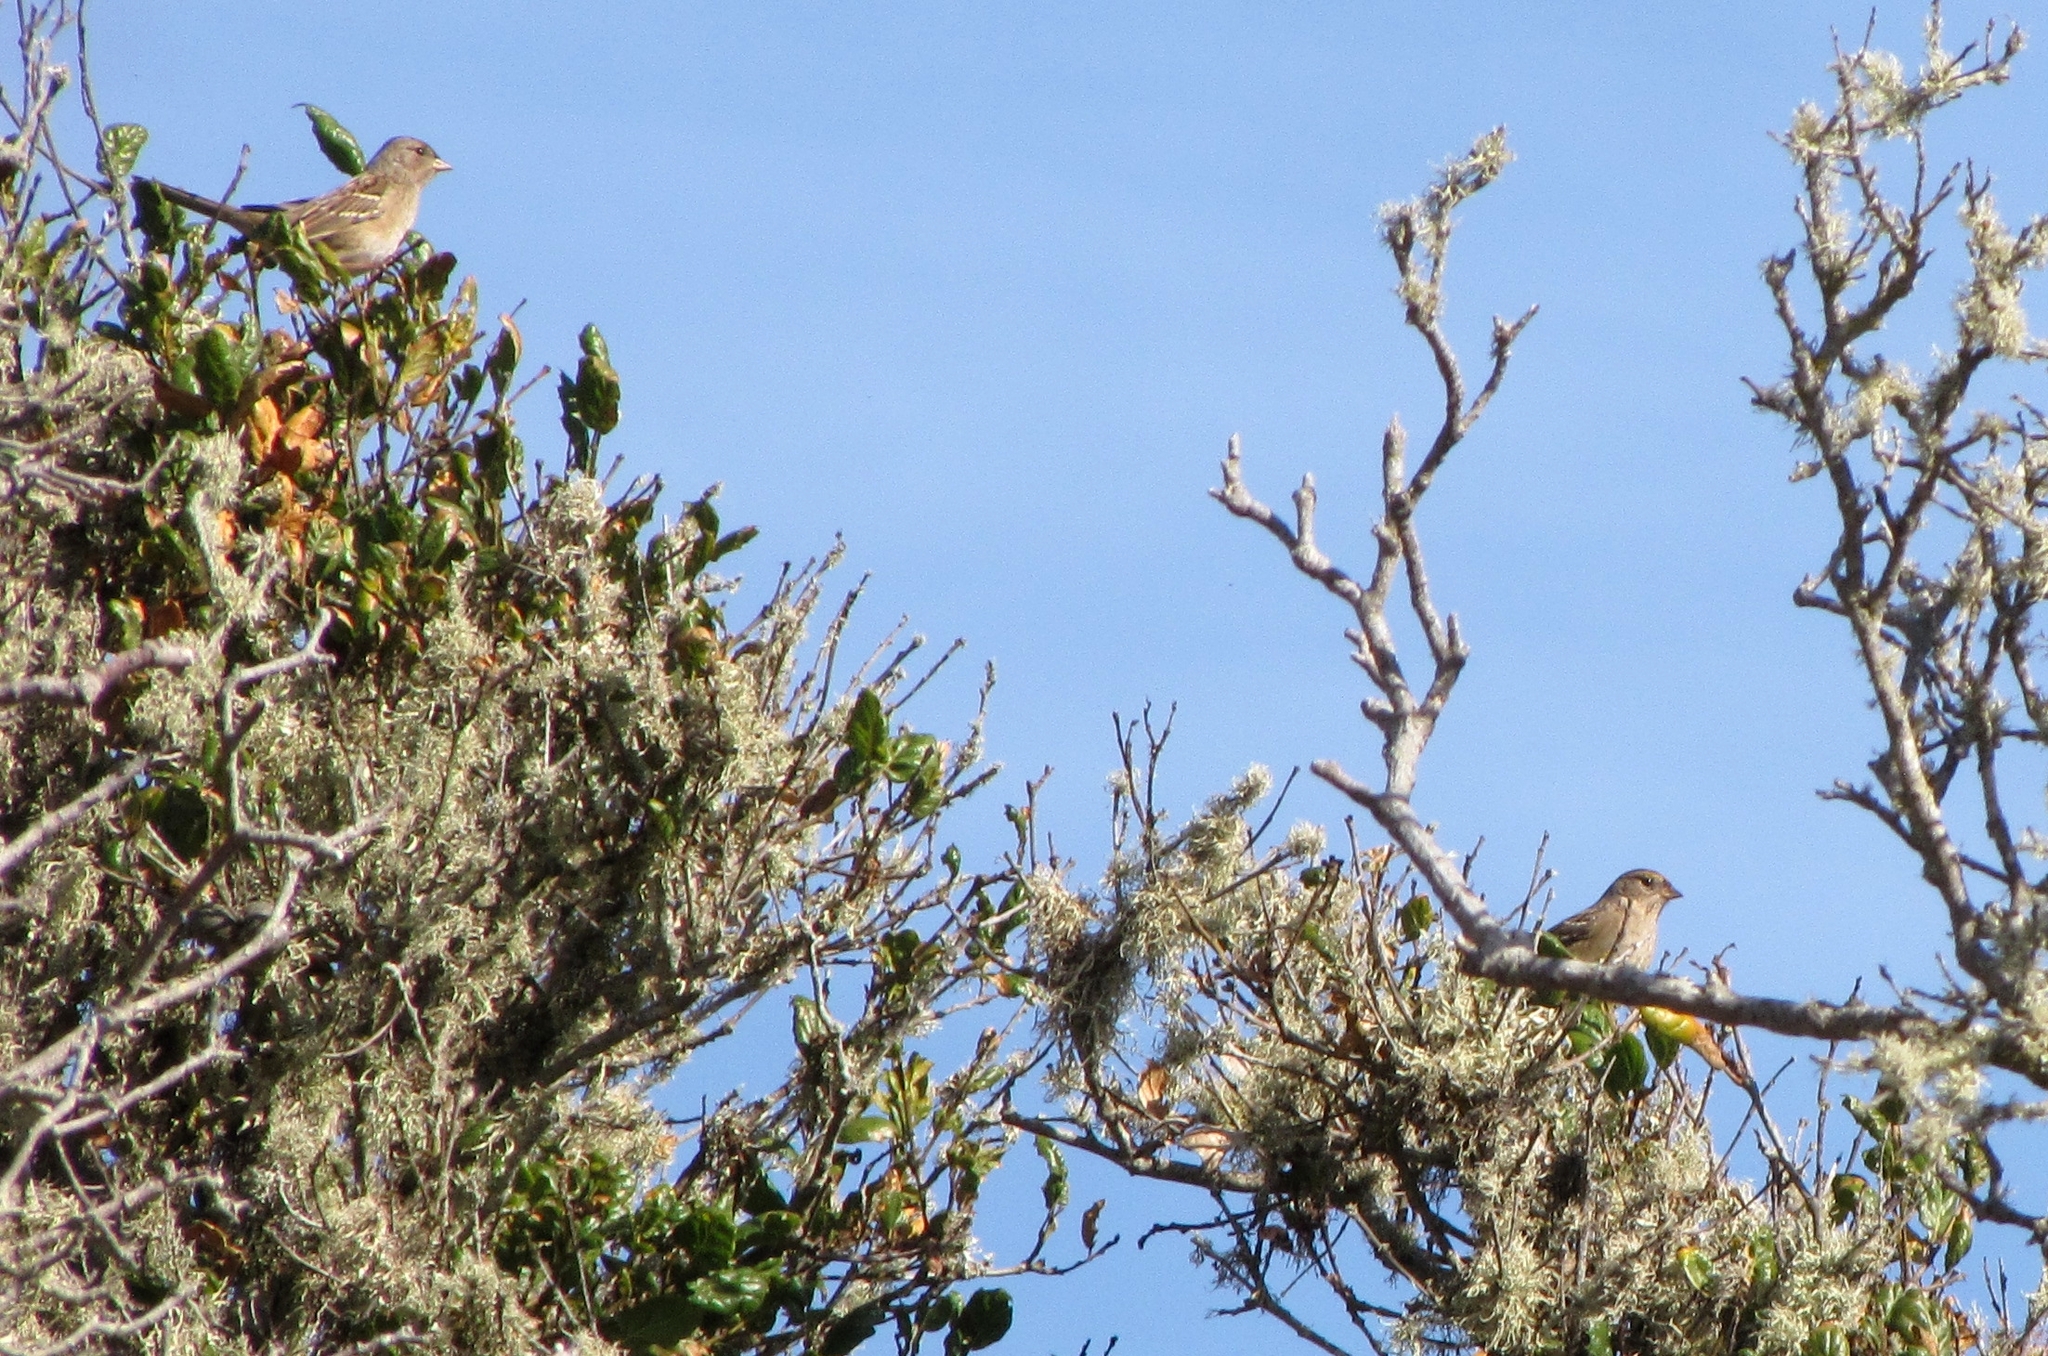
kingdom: Animalia
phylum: Chordata
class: Aves
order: Passeriformes
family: Passerellidae
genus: Zonotrichia
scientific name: Zonotrichia atricapilla
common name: Golden-crowned sparrow
